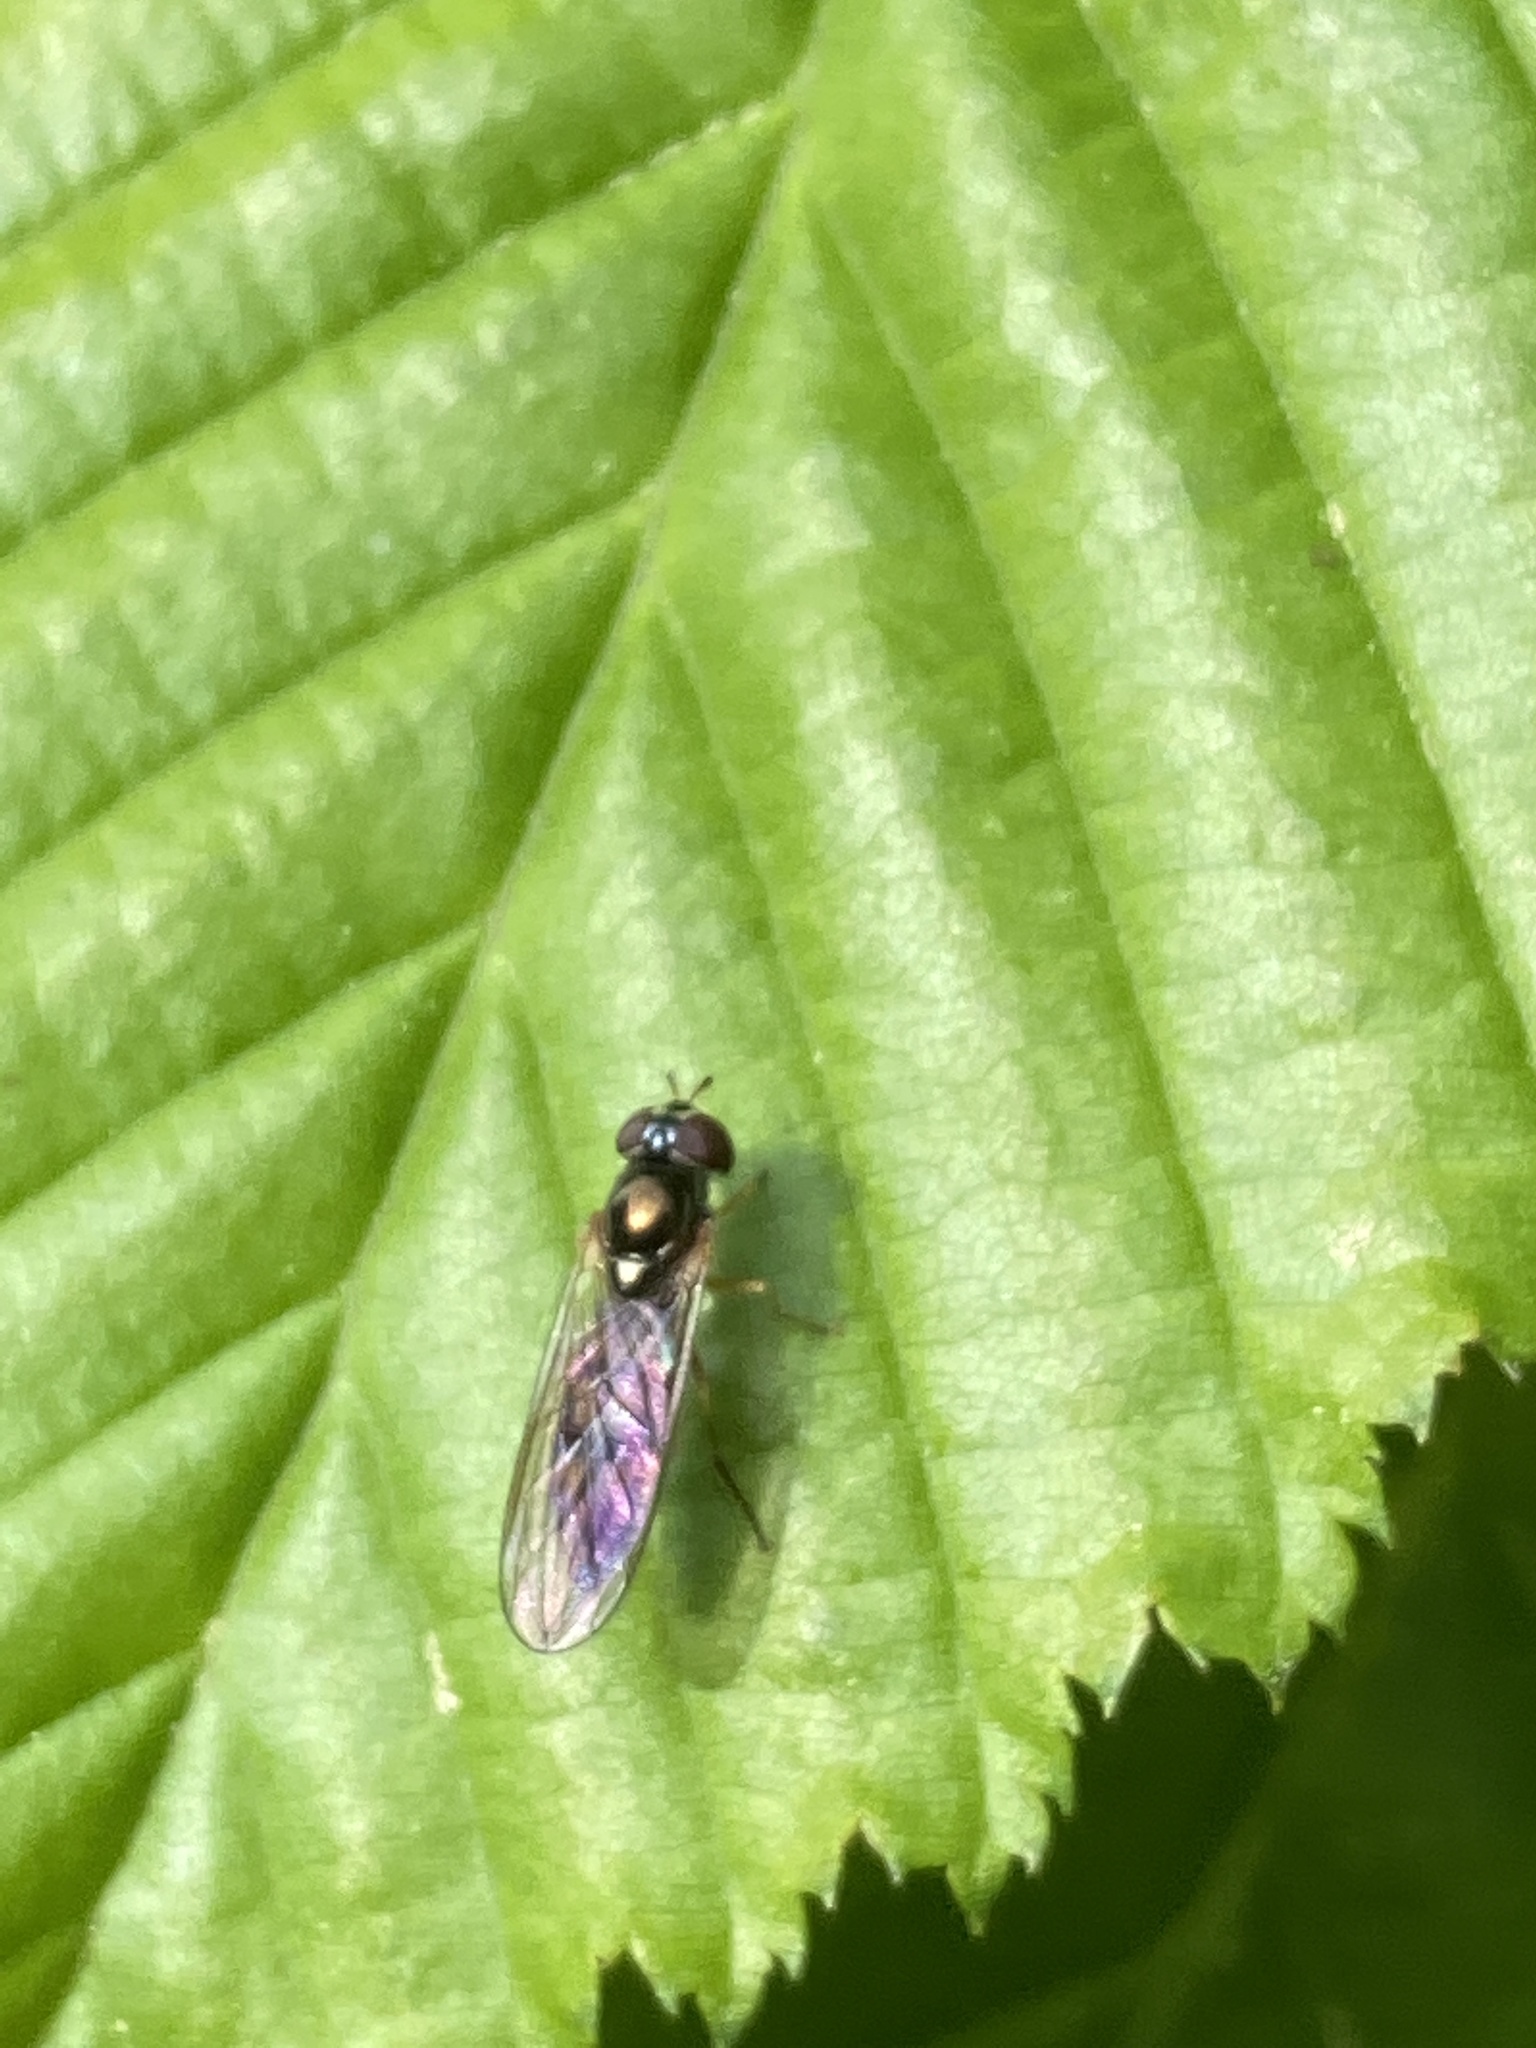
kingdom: Animalia
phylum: Arthropoda
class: Insecta
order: Diptera
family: Syrphidae
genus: Melanostoma
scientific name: Melanostoma scalare
